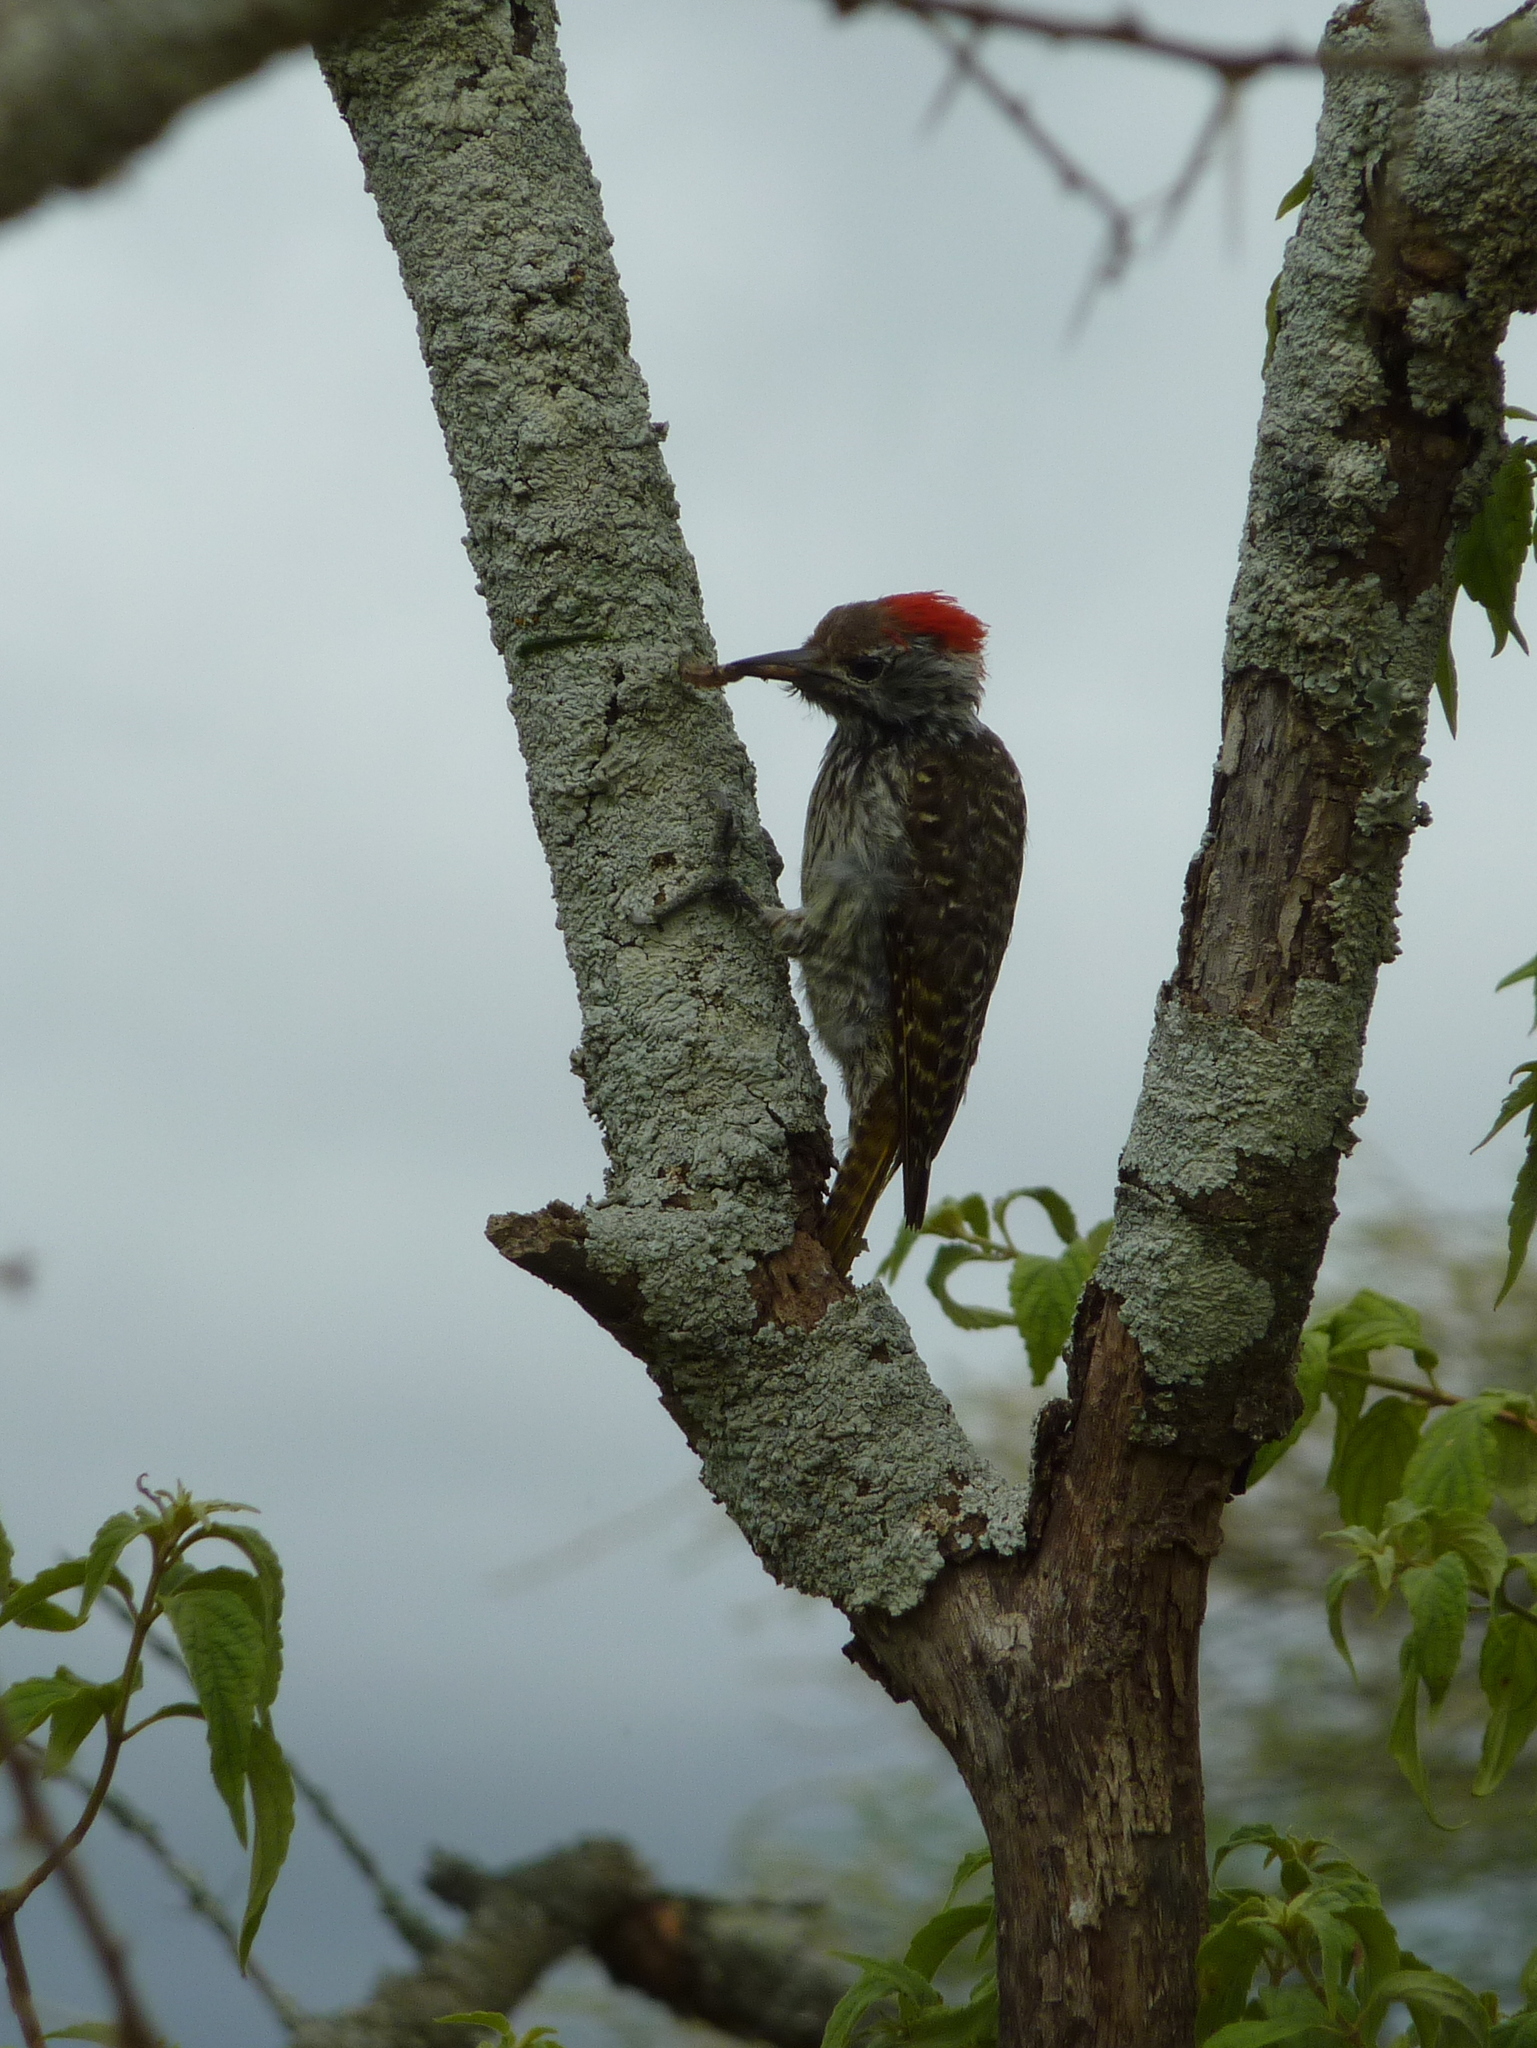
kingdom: Animalia
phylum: Chordata
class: Aves
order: Piciformes
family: Picidae
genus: Dendropicos
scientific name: Dendropicos fuscescens
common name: Cardinal woodpecker
